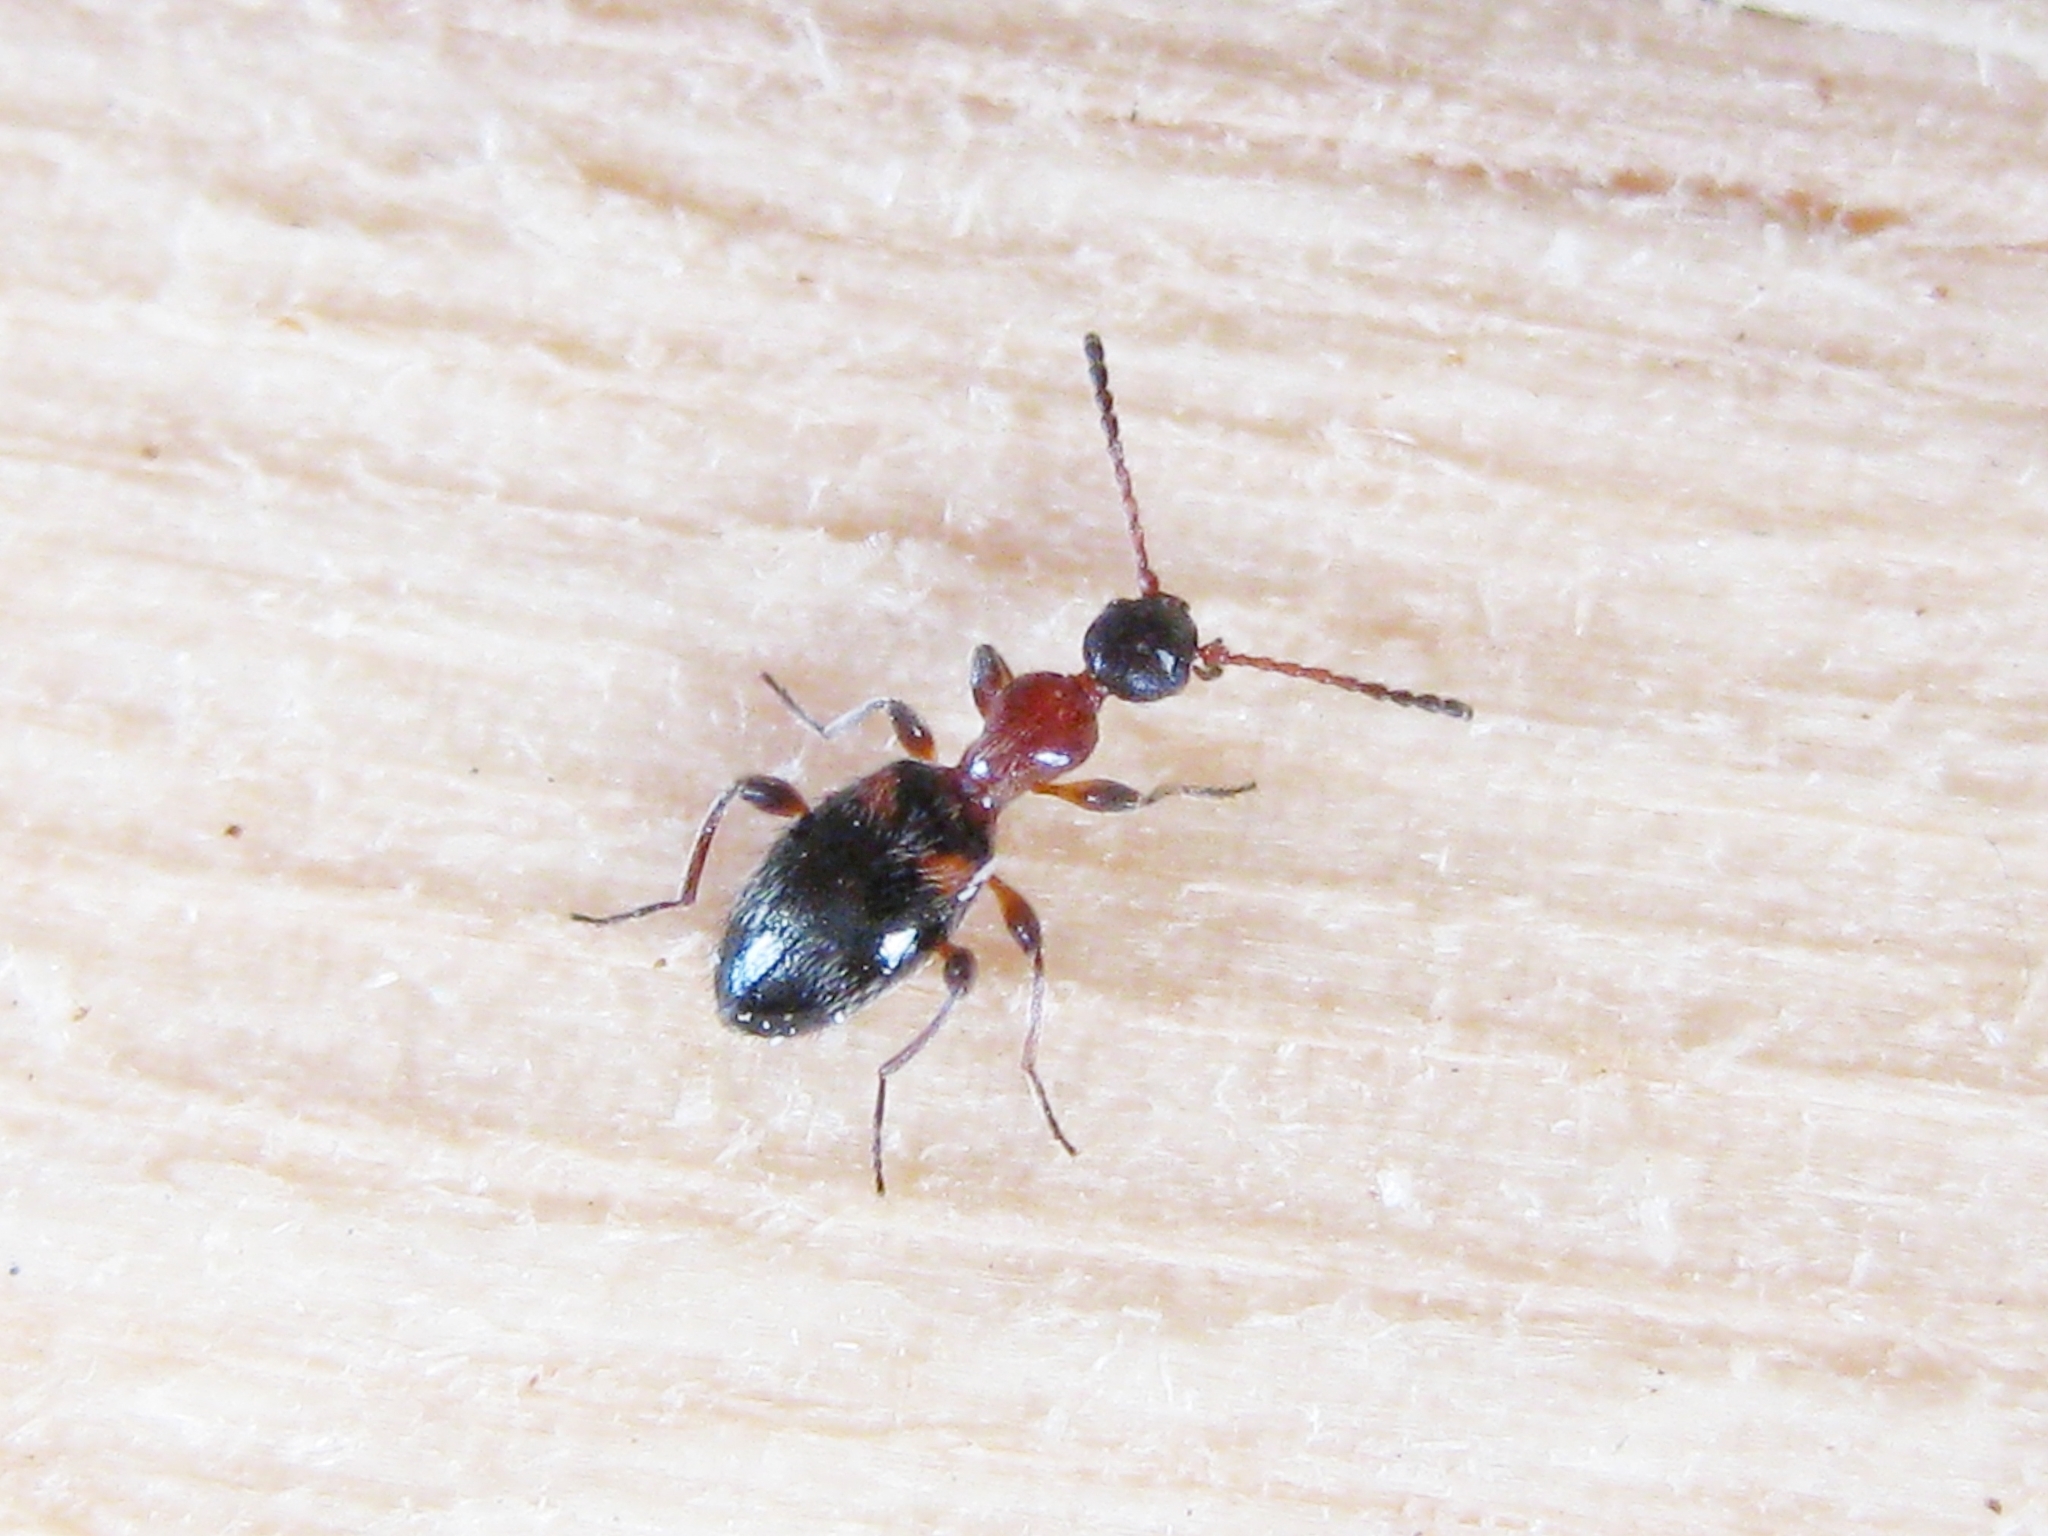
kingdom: Animalia
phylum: Arthropoda
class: Insecta
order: Coleoptera
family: Anthicidae
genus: Anthelephila
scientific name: Anthelephila pedestris
